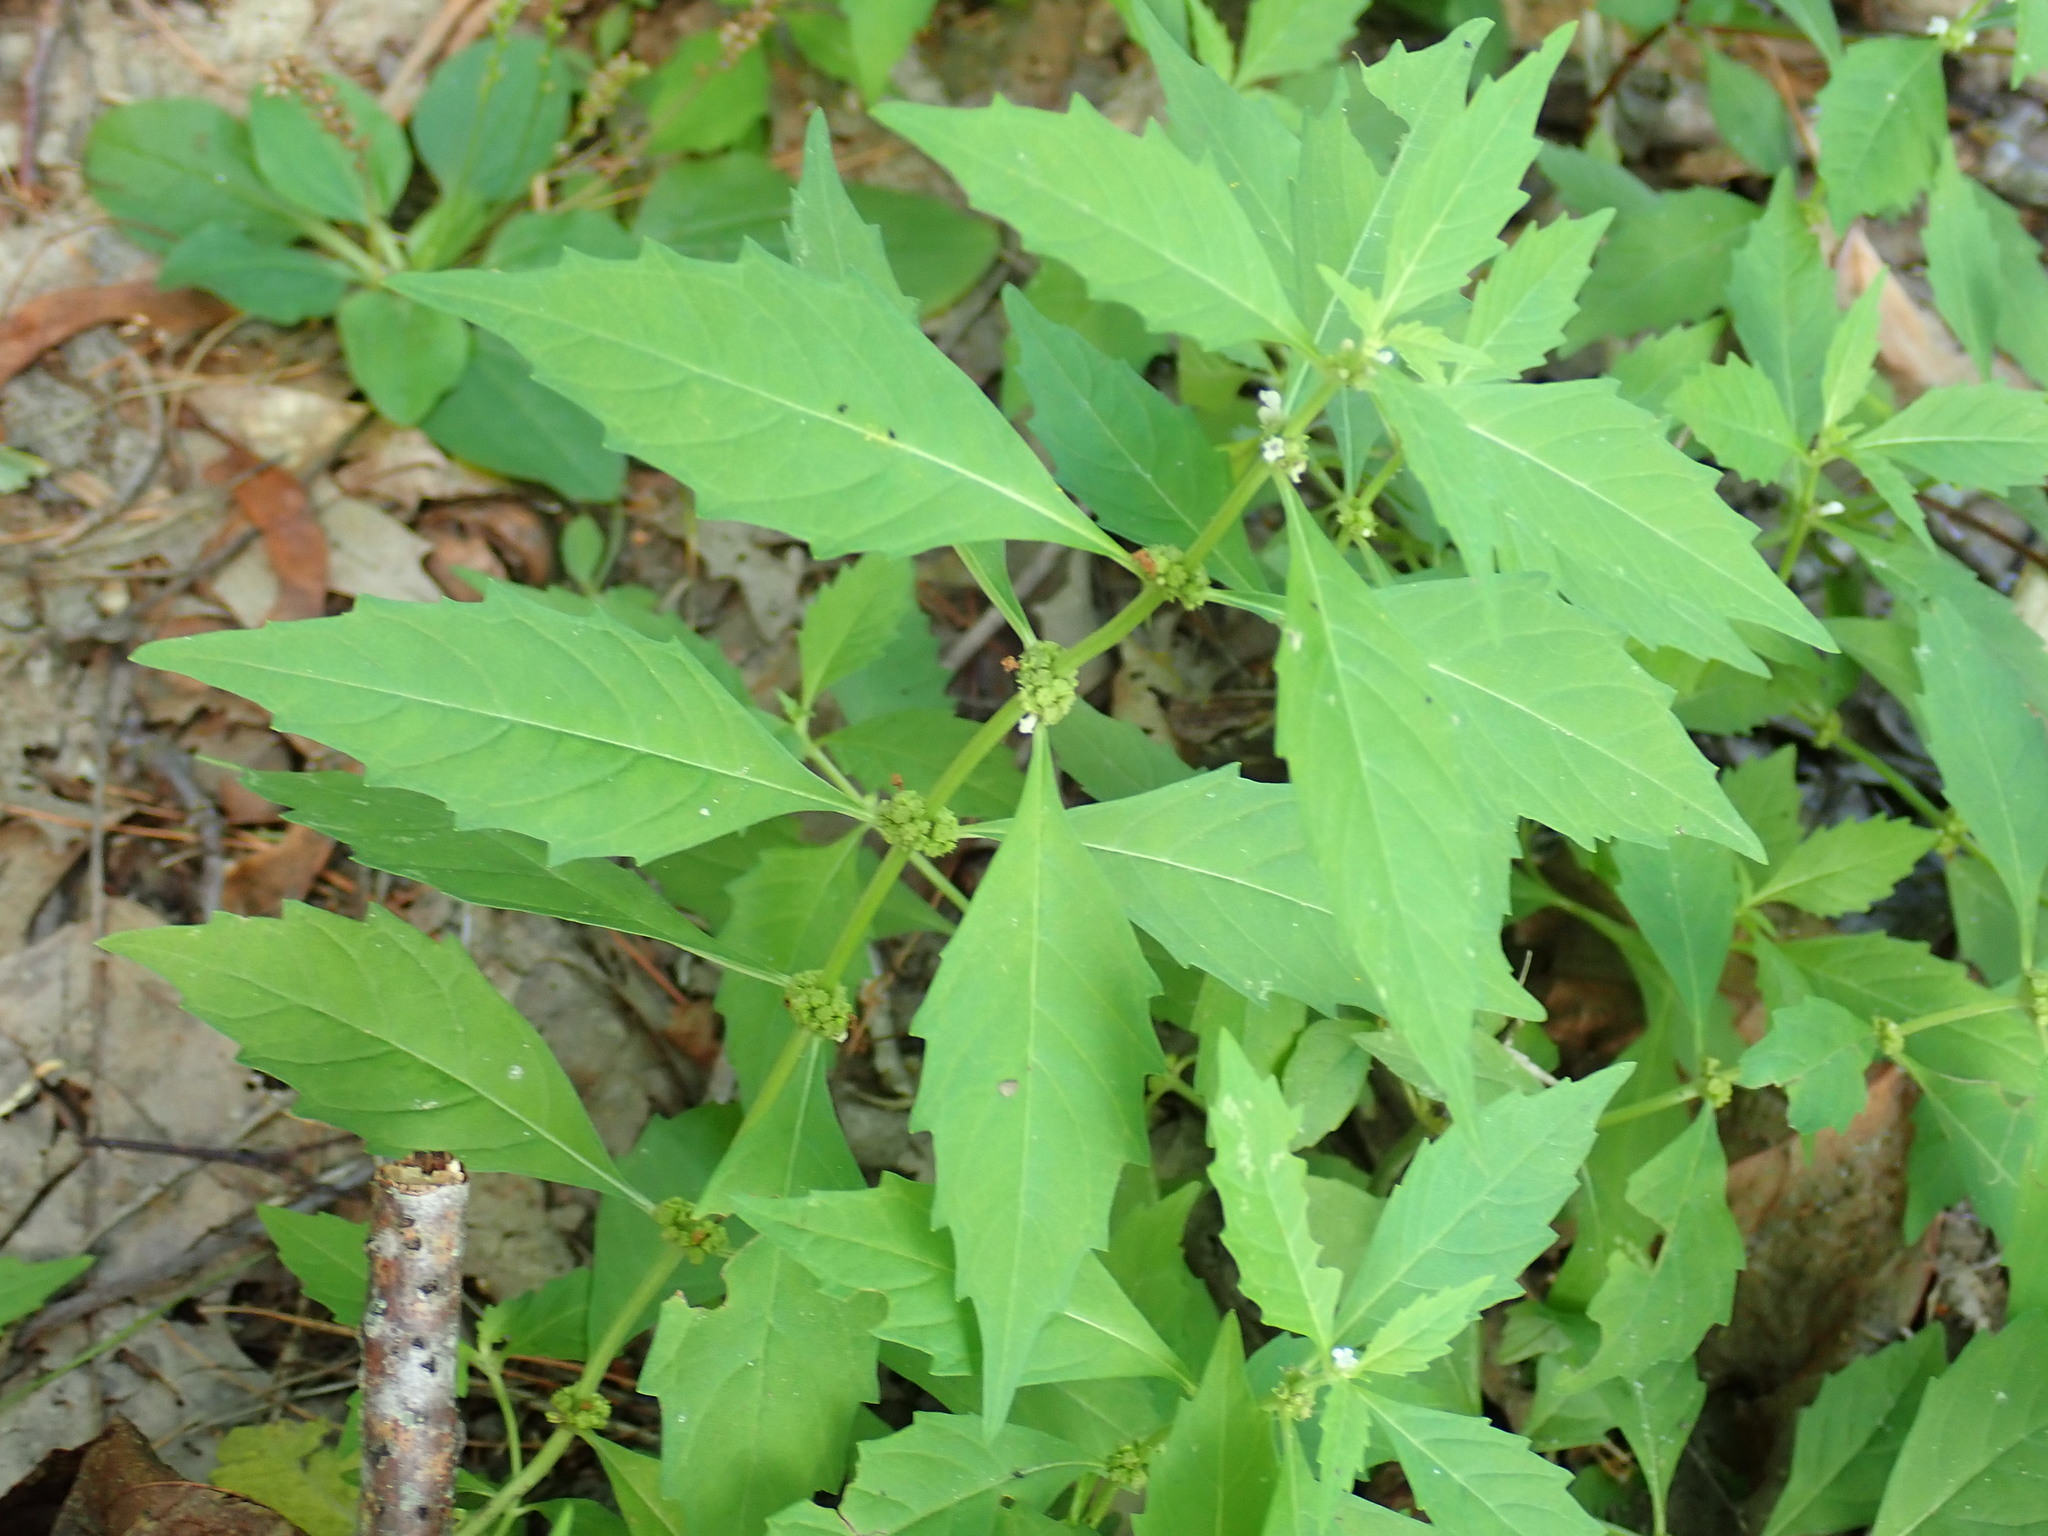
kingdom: Plantae
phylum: Tracheophyta
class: Magnoliopsida
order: Lamiales
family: Lamiaceae
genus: Lycopus
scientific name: Lycopus uniflorus
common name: Northern bugleweed
